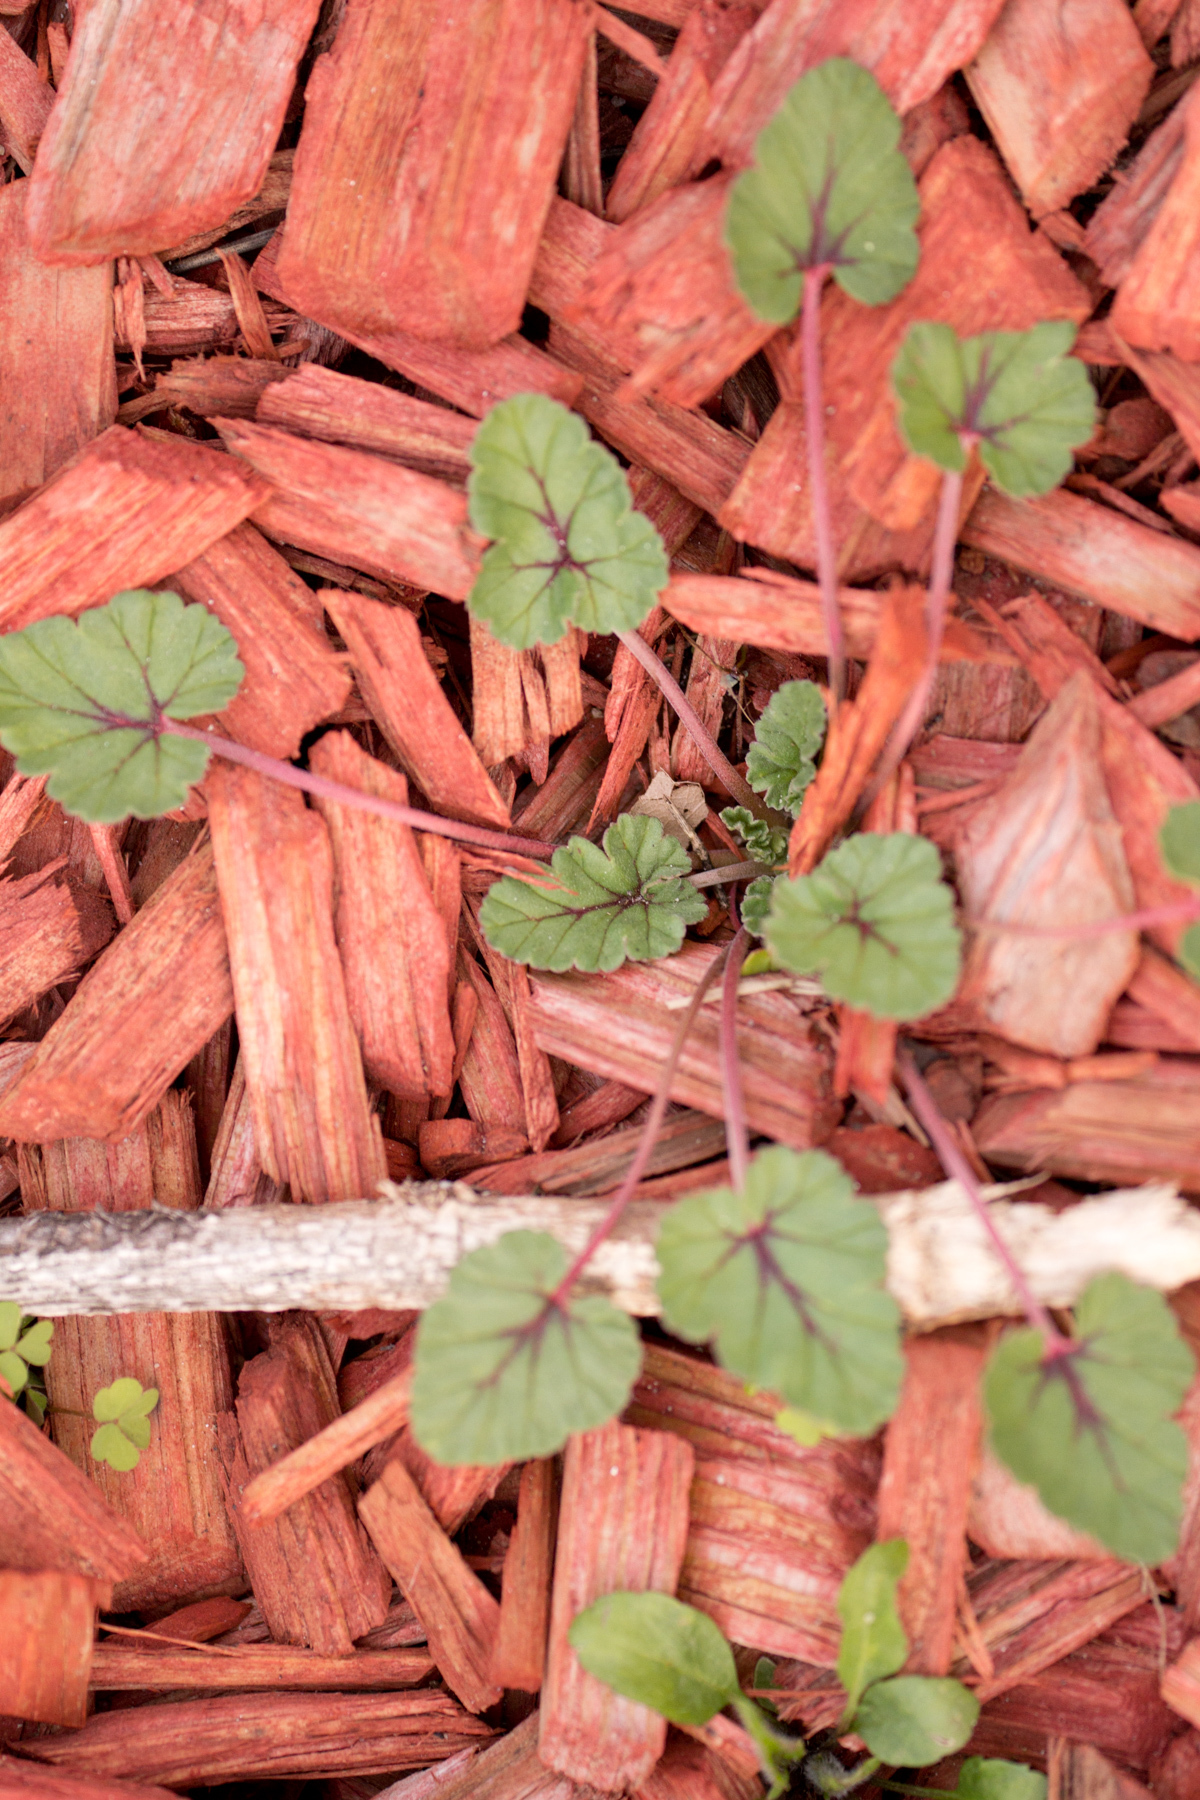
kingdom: Plantae
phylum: Tracheophyta
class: Magnoliopsida
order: Geraniales
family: Geraniaceae
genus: Erodium
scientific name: Erodium texanum
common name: Texas stork's-bill
